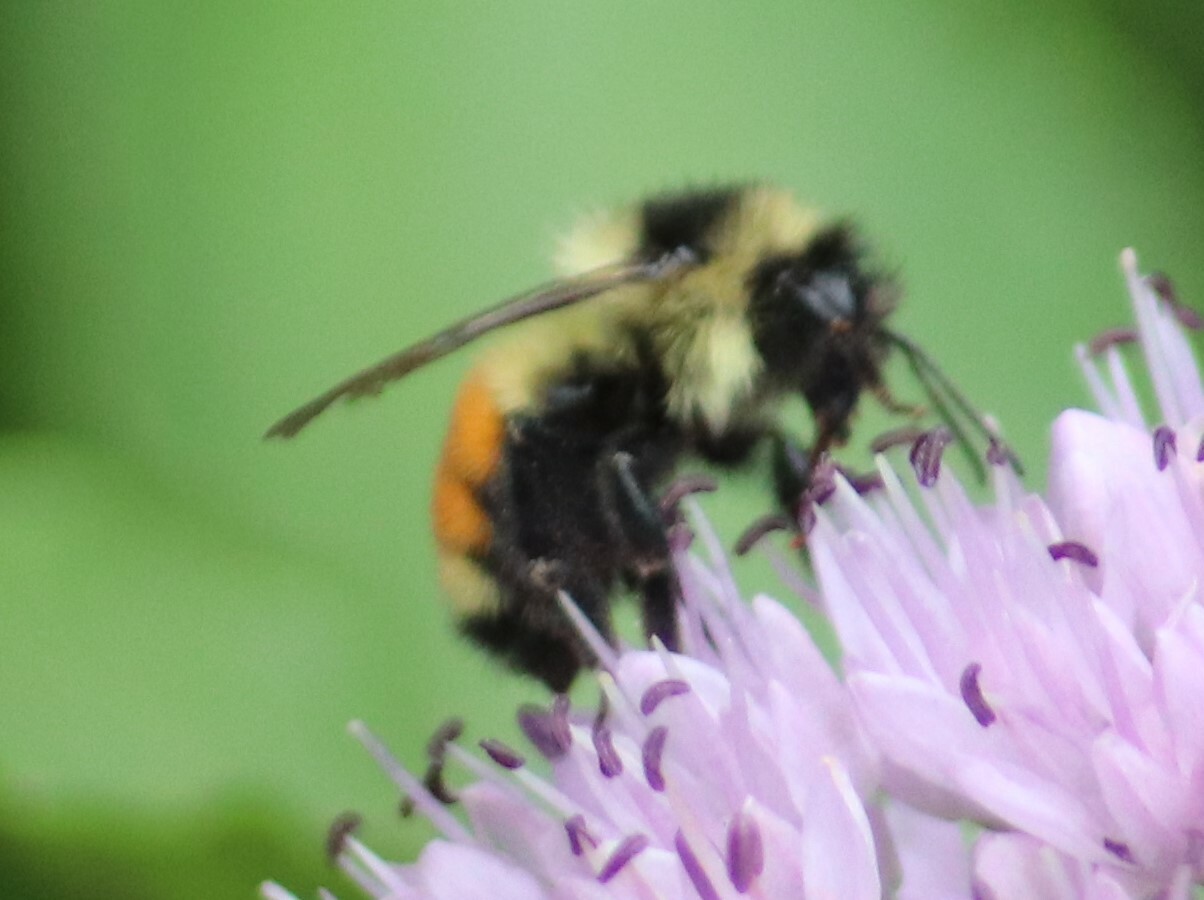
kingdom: Animalia
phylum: Arthropoda
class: Insecta
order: Hymenoptera
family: Apidae
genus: Bombus
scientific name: Bombus ternarius
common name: Tri-colored bumble bee
